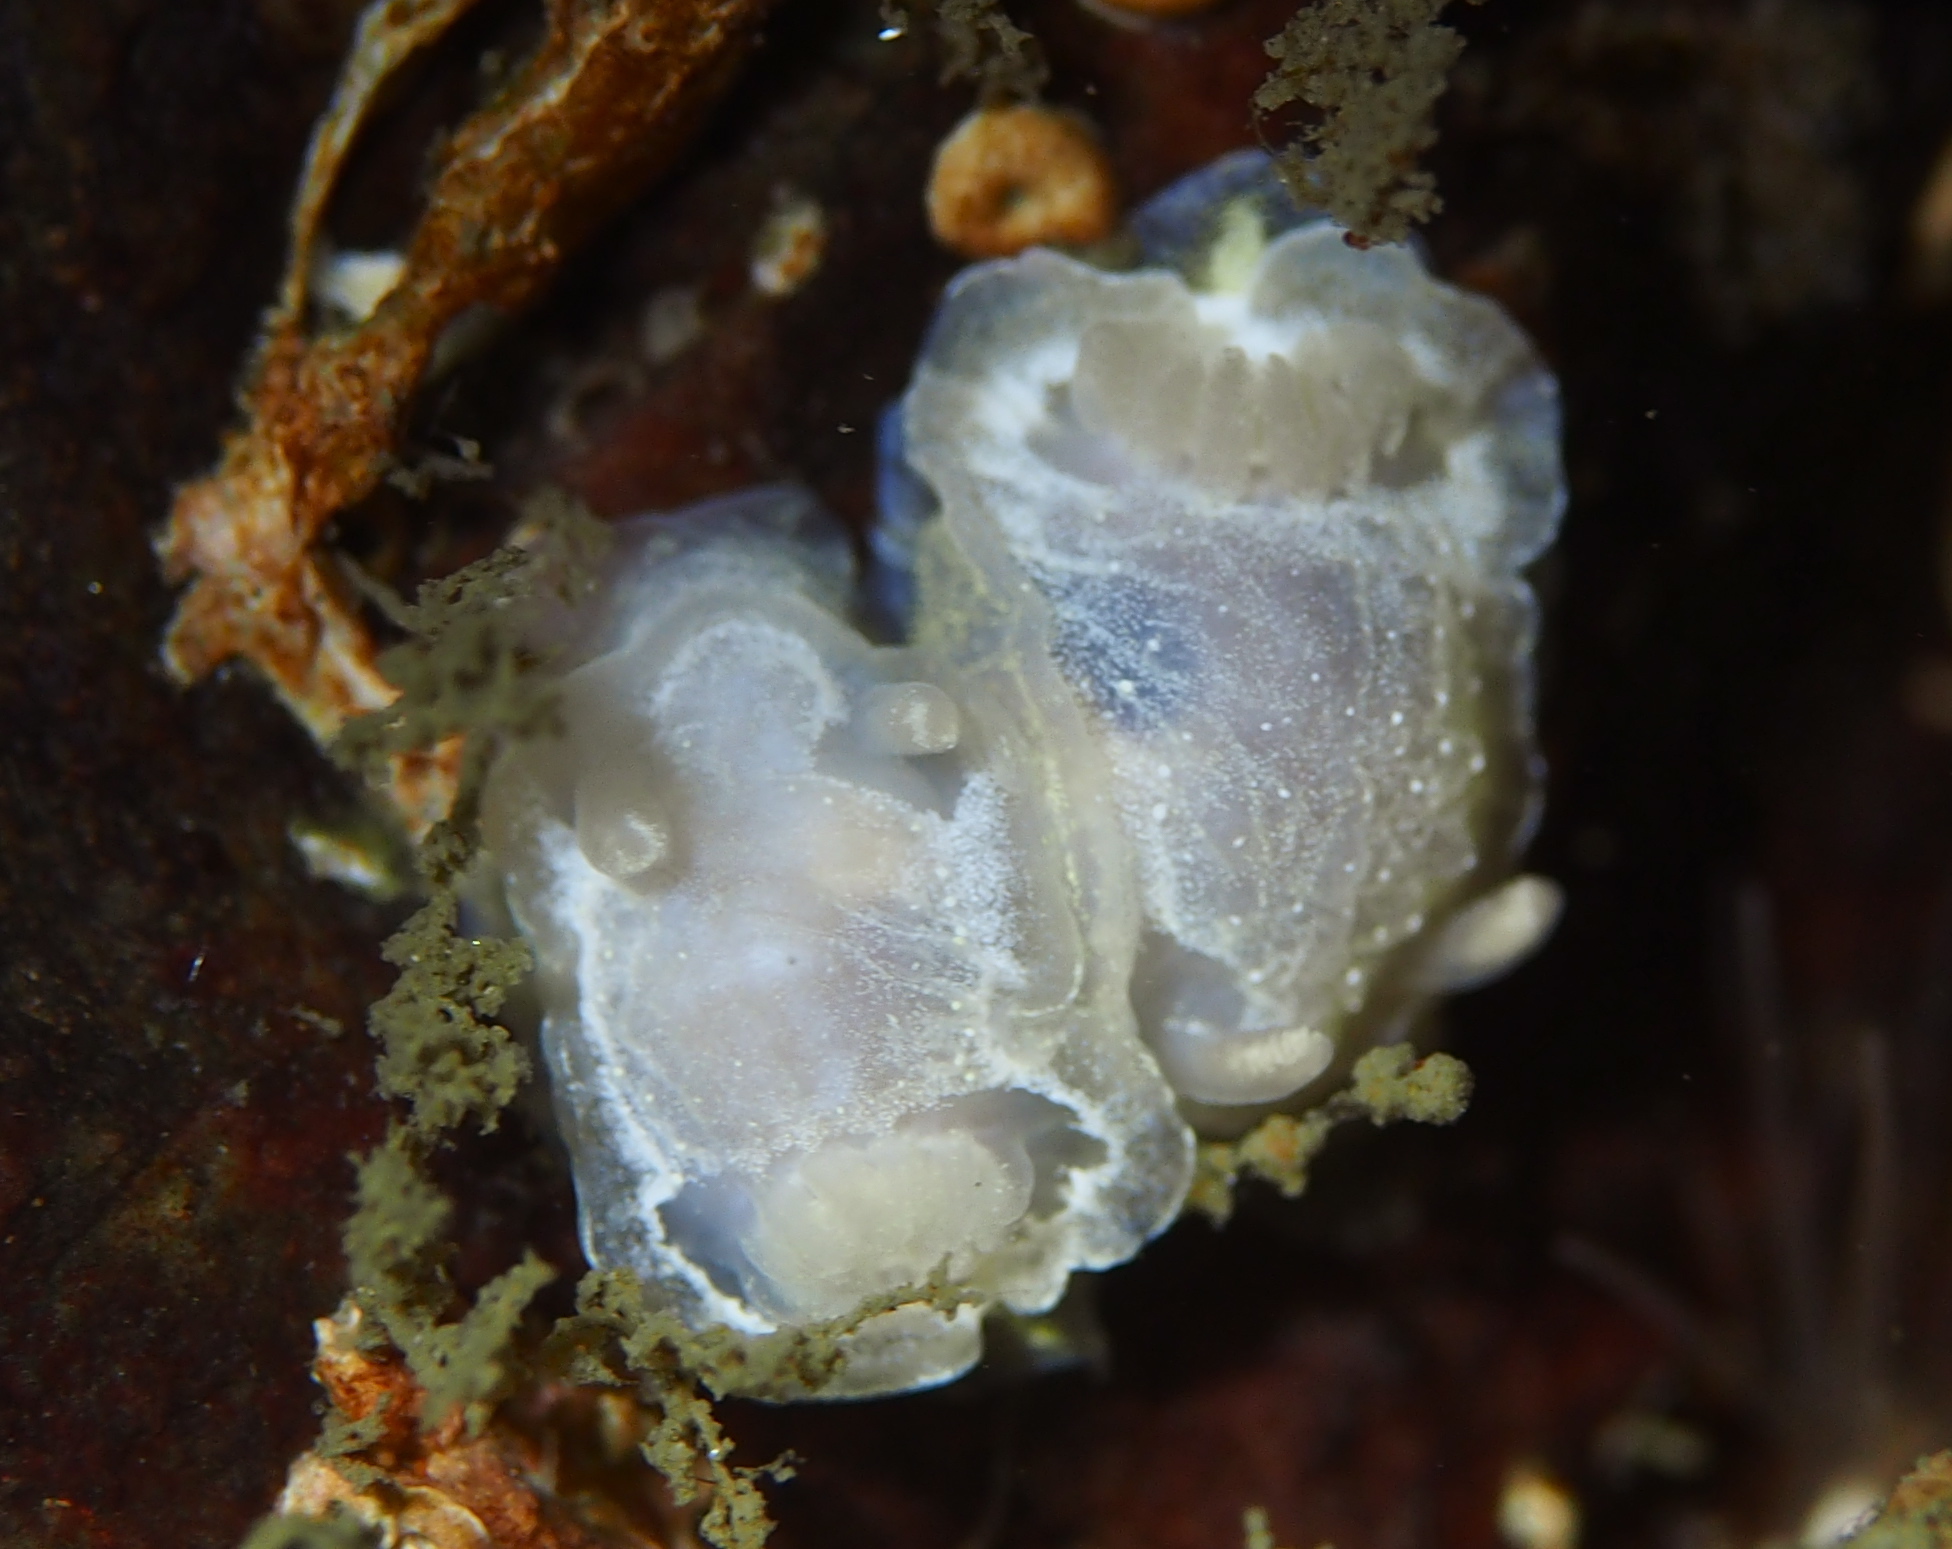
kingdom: Animalia
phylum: Mollusca
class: Gastropoda
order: Nudibranchia
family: Goniodorididae
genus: Okenia
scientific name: Okenia
